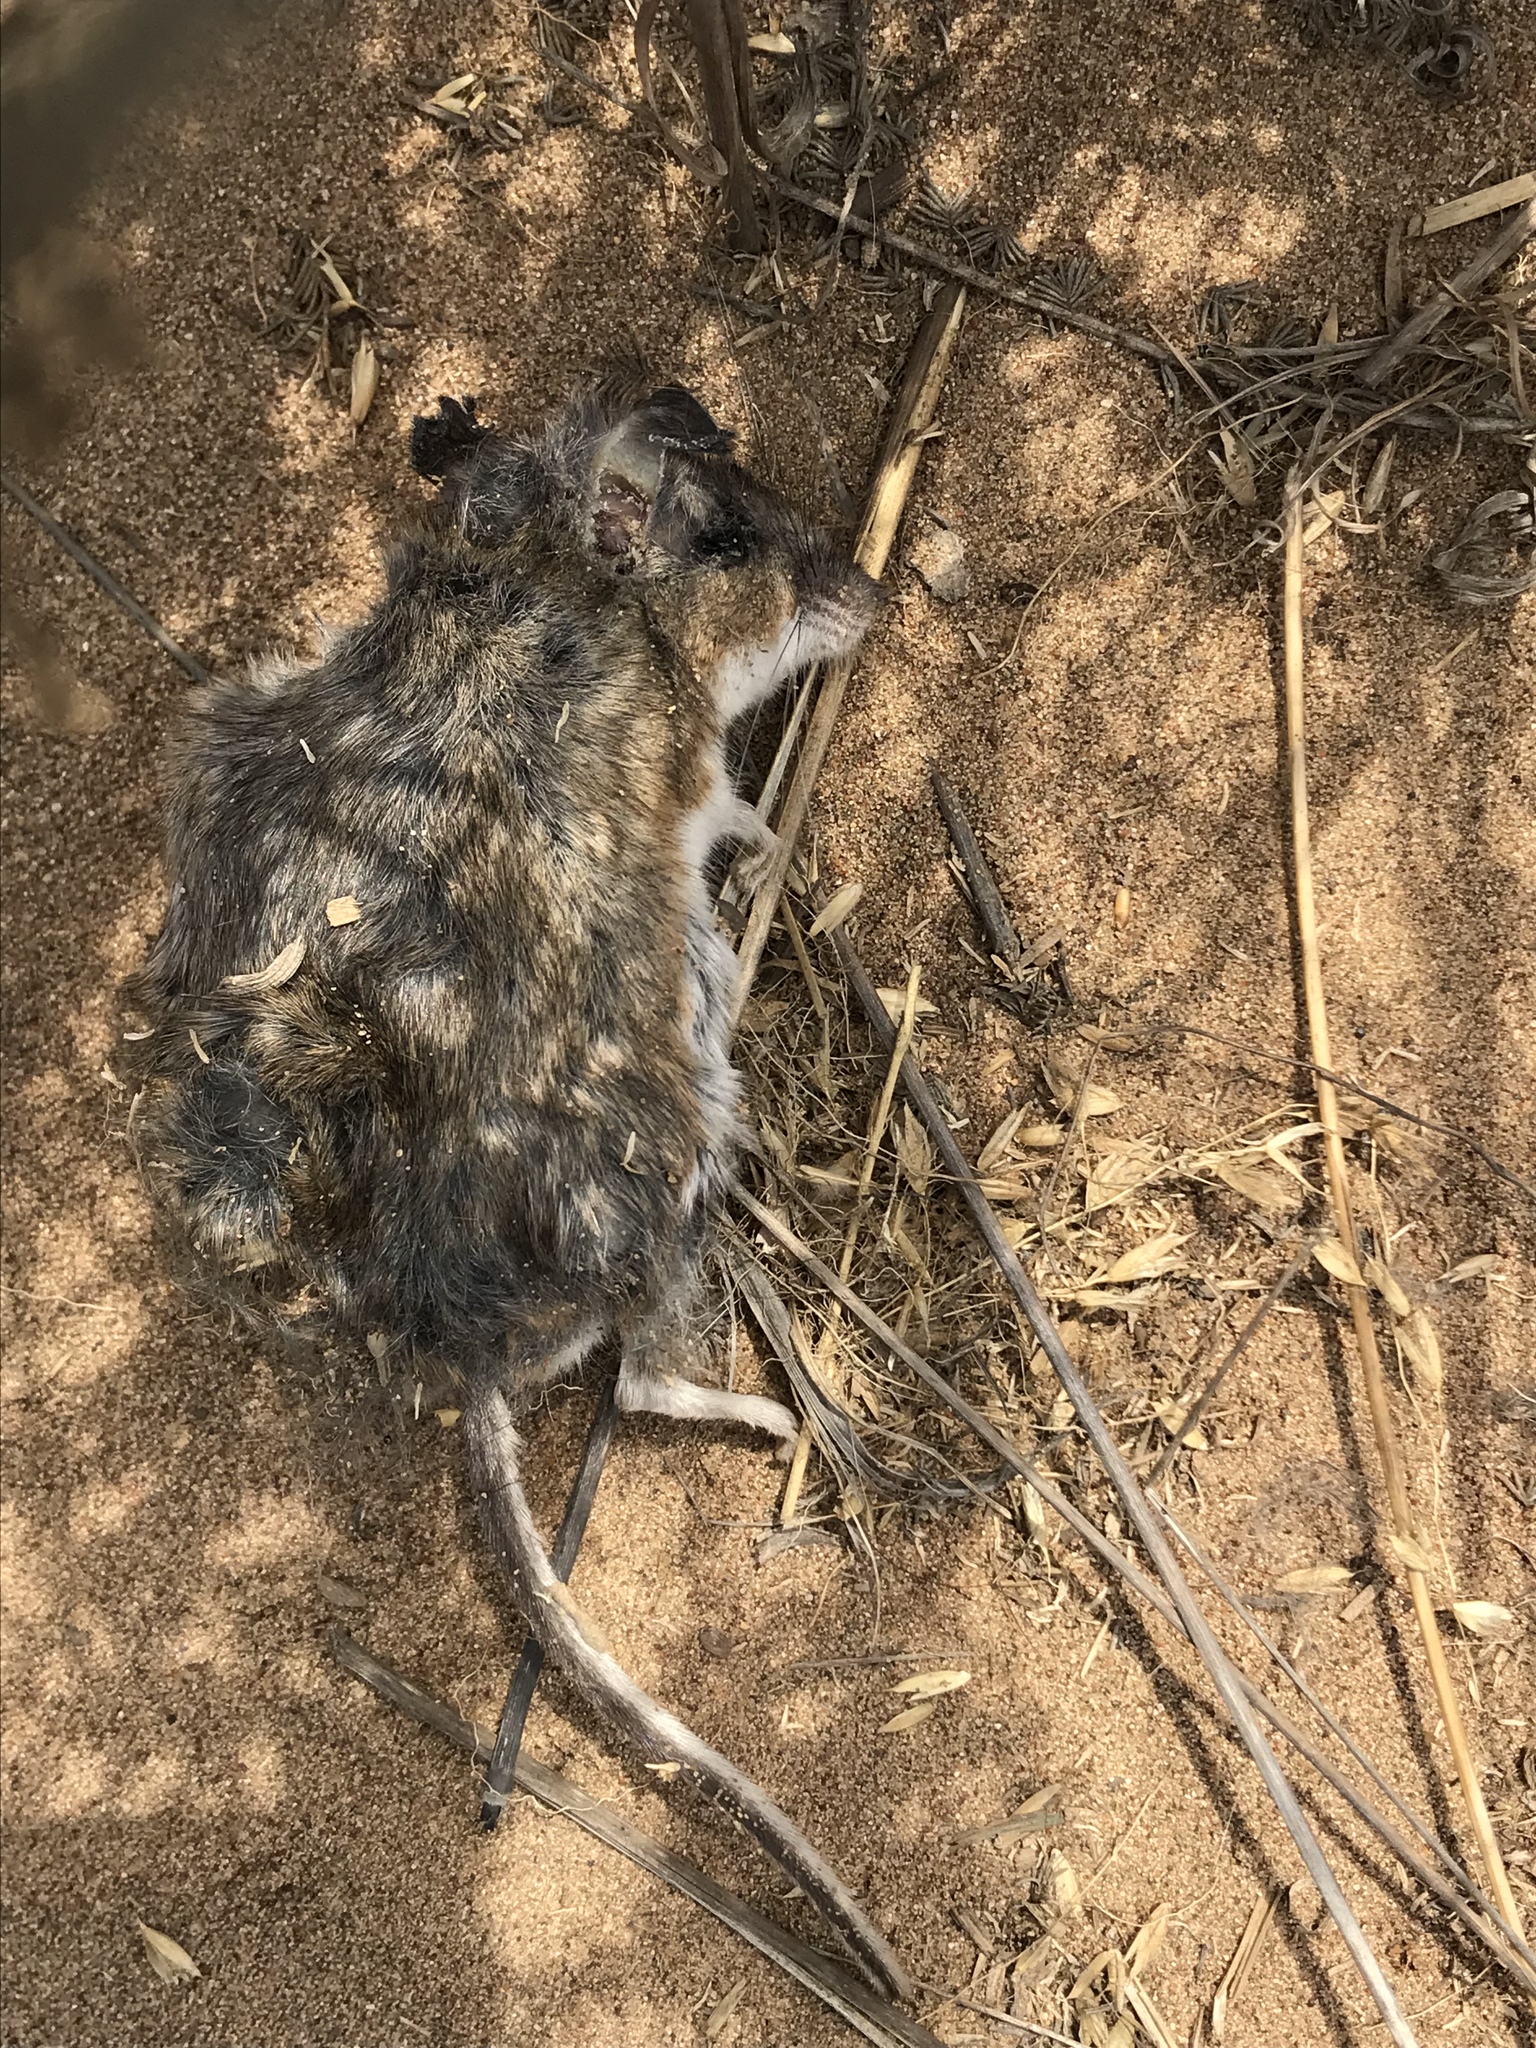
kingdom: Animalia
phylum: Chordata
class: Mammalia
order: Rodentia
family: Cricetidae
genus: Peromyscus
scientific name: Peromyscus maniculatus
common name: Deer mouse
